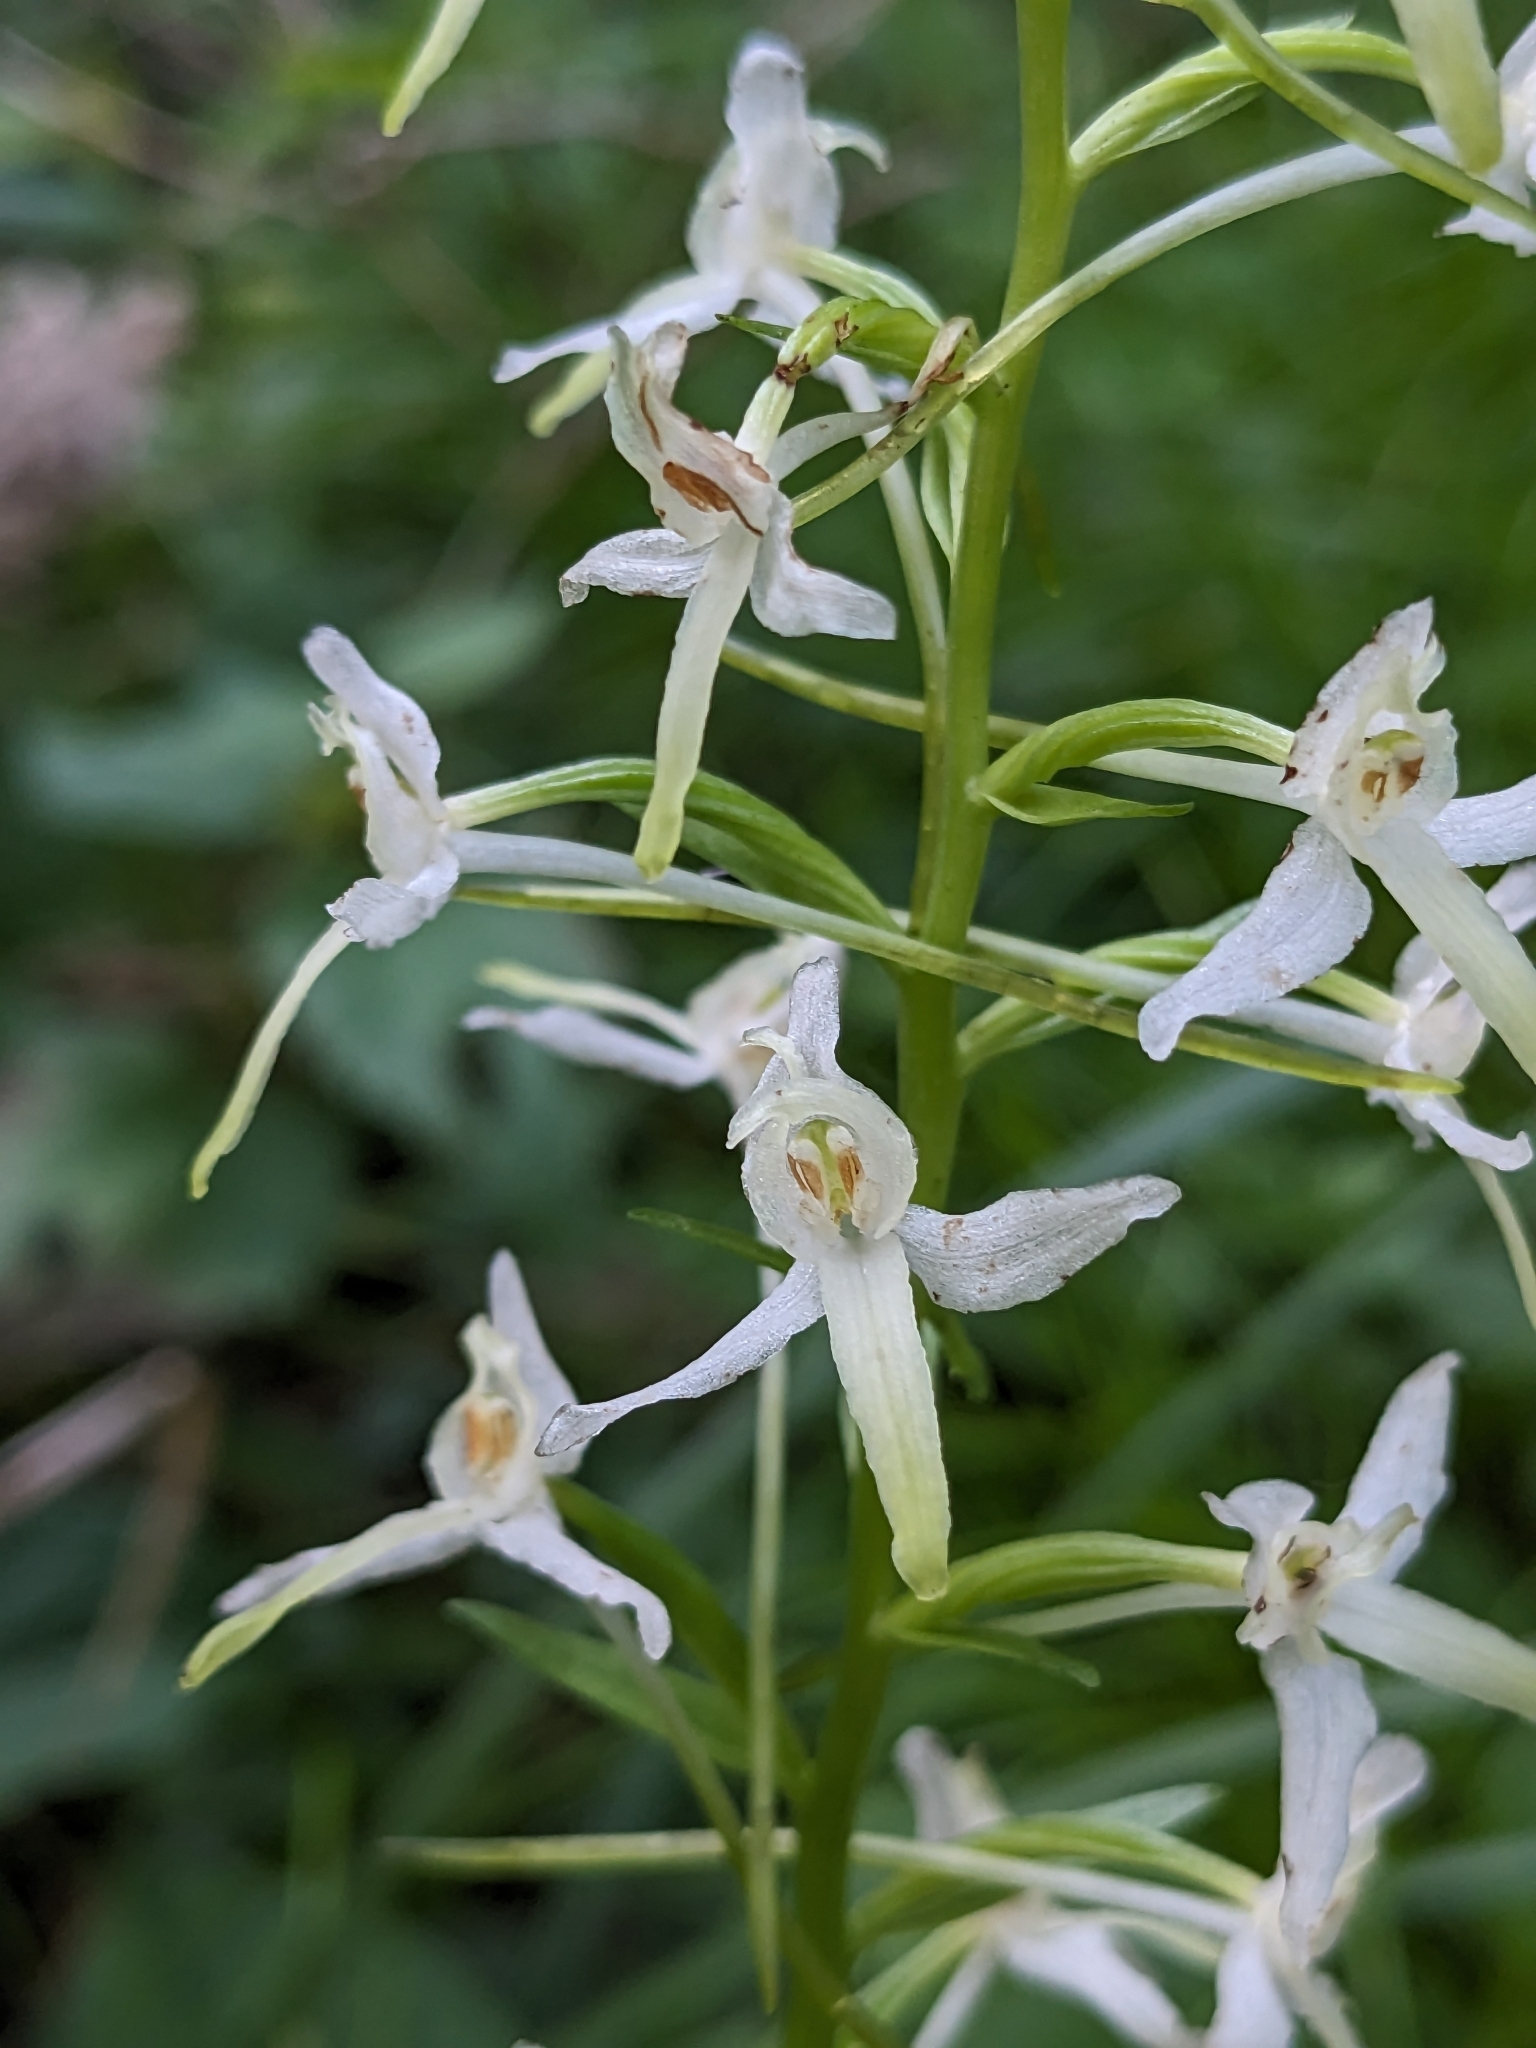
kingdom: Plantae
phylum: Tracheophyta
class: Liliopsida
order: Asparagales
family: Orchidaceae
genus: Platanthera
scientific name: Platanthera bifolia
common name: Lesser butterfly-orchid
